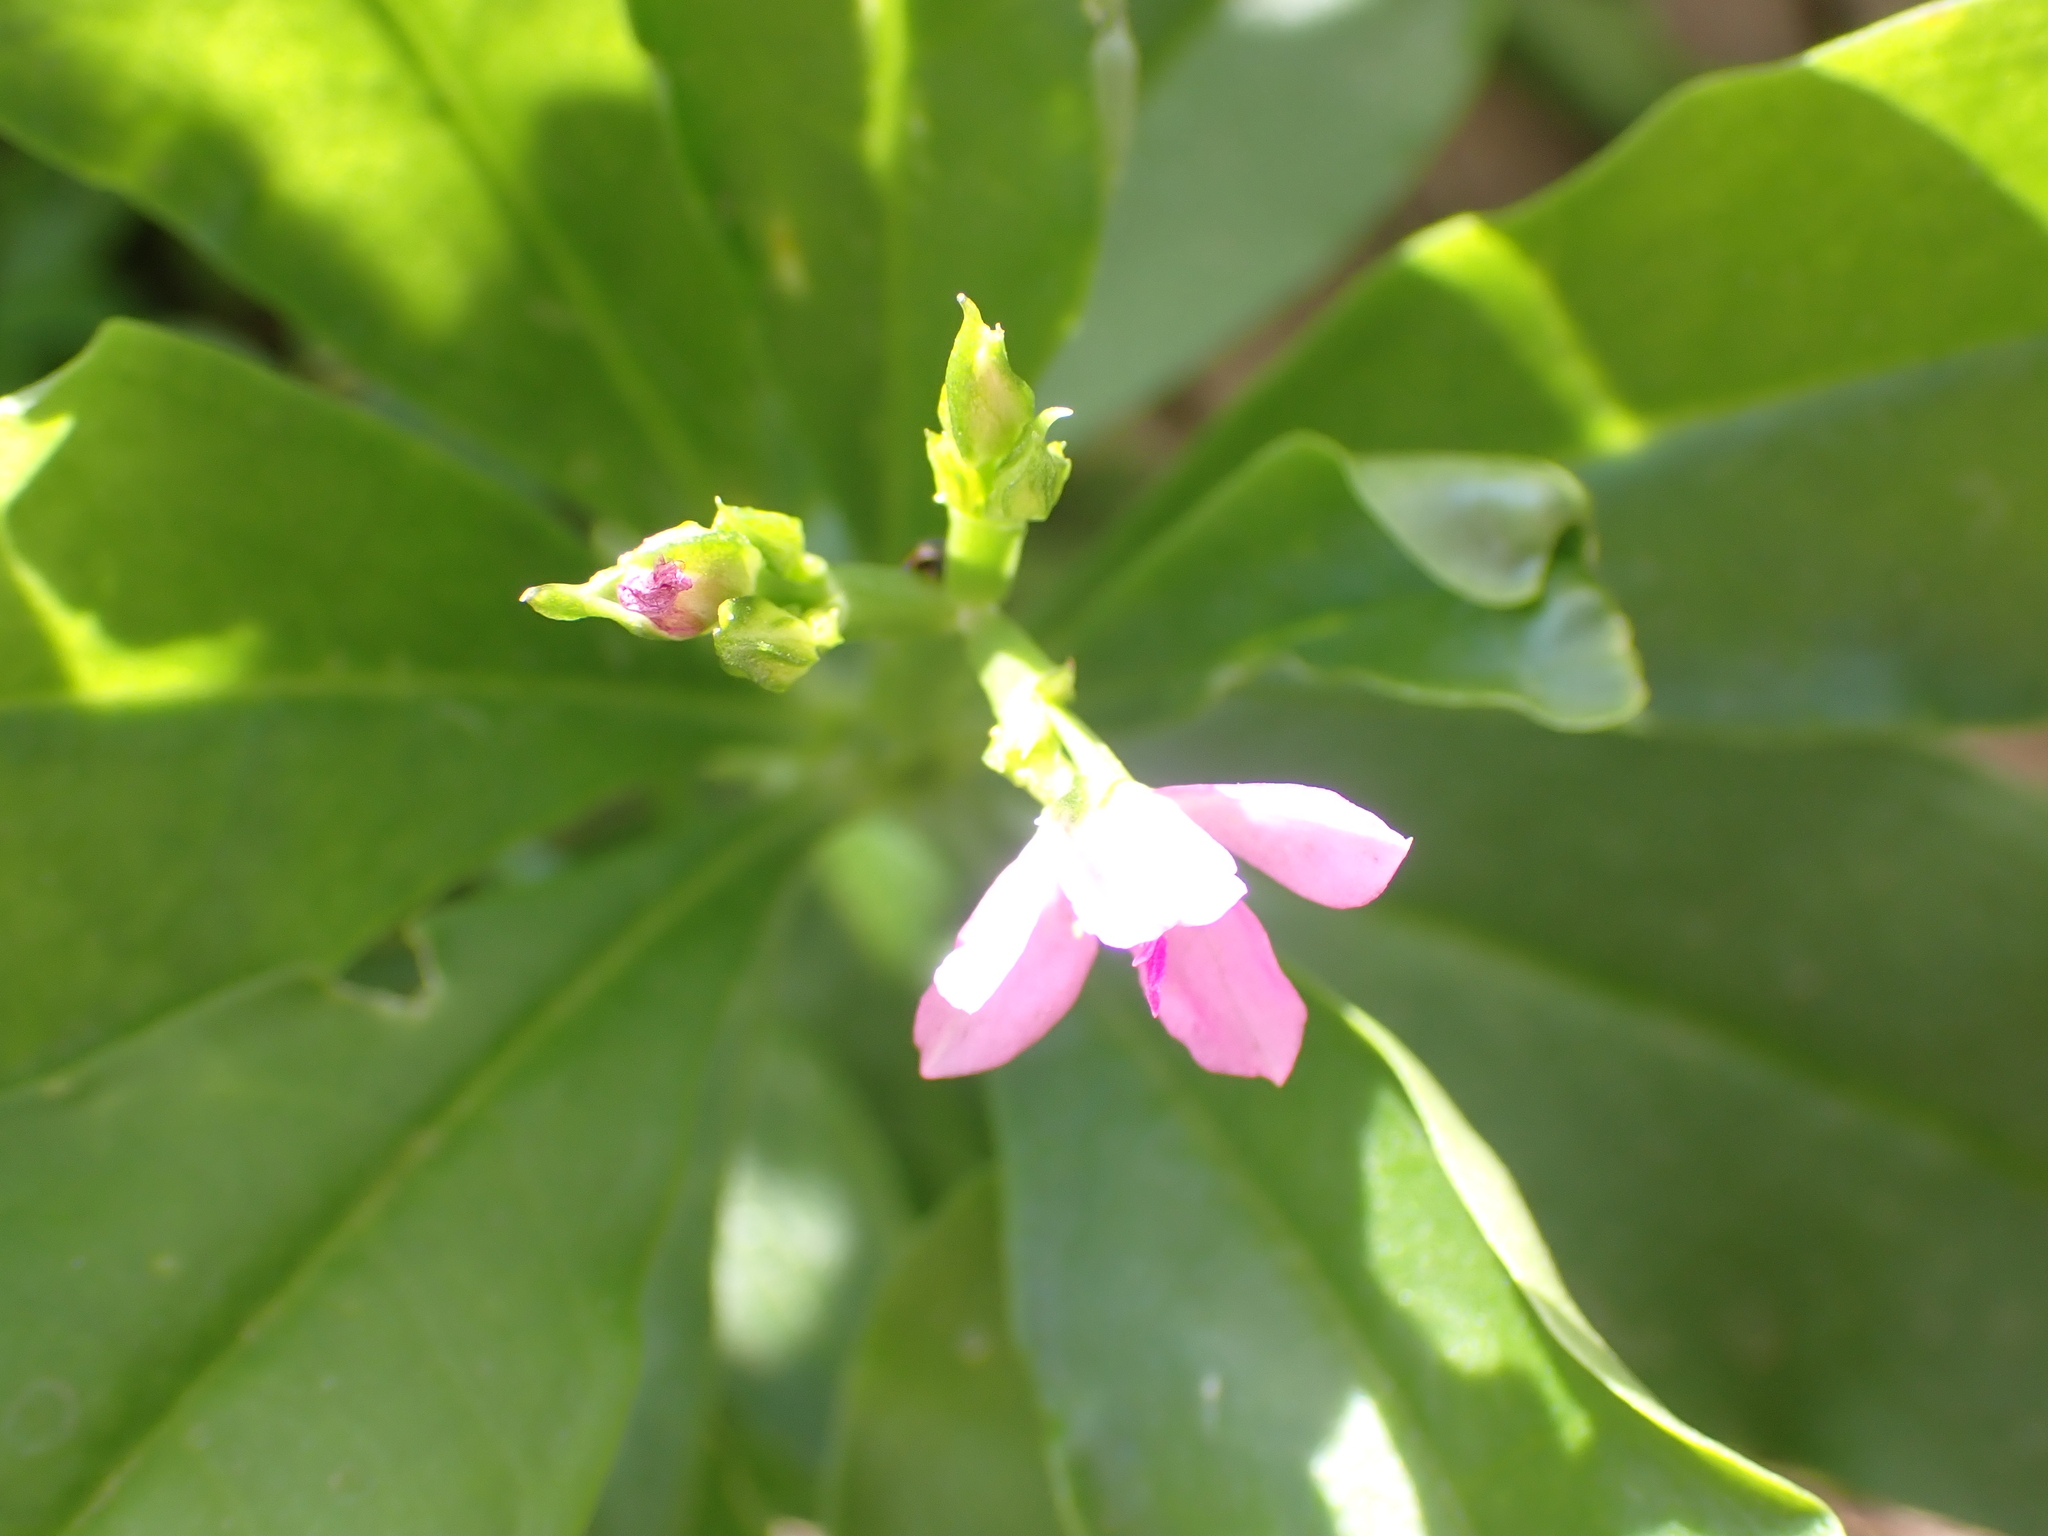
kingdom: Plantae
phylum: Tracheophyta
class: Magnoliopsida
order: Caryophyllales
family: Talinaceae
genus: Talinum
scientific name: Talinum fruticosum
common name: Verdolaga-francesa
